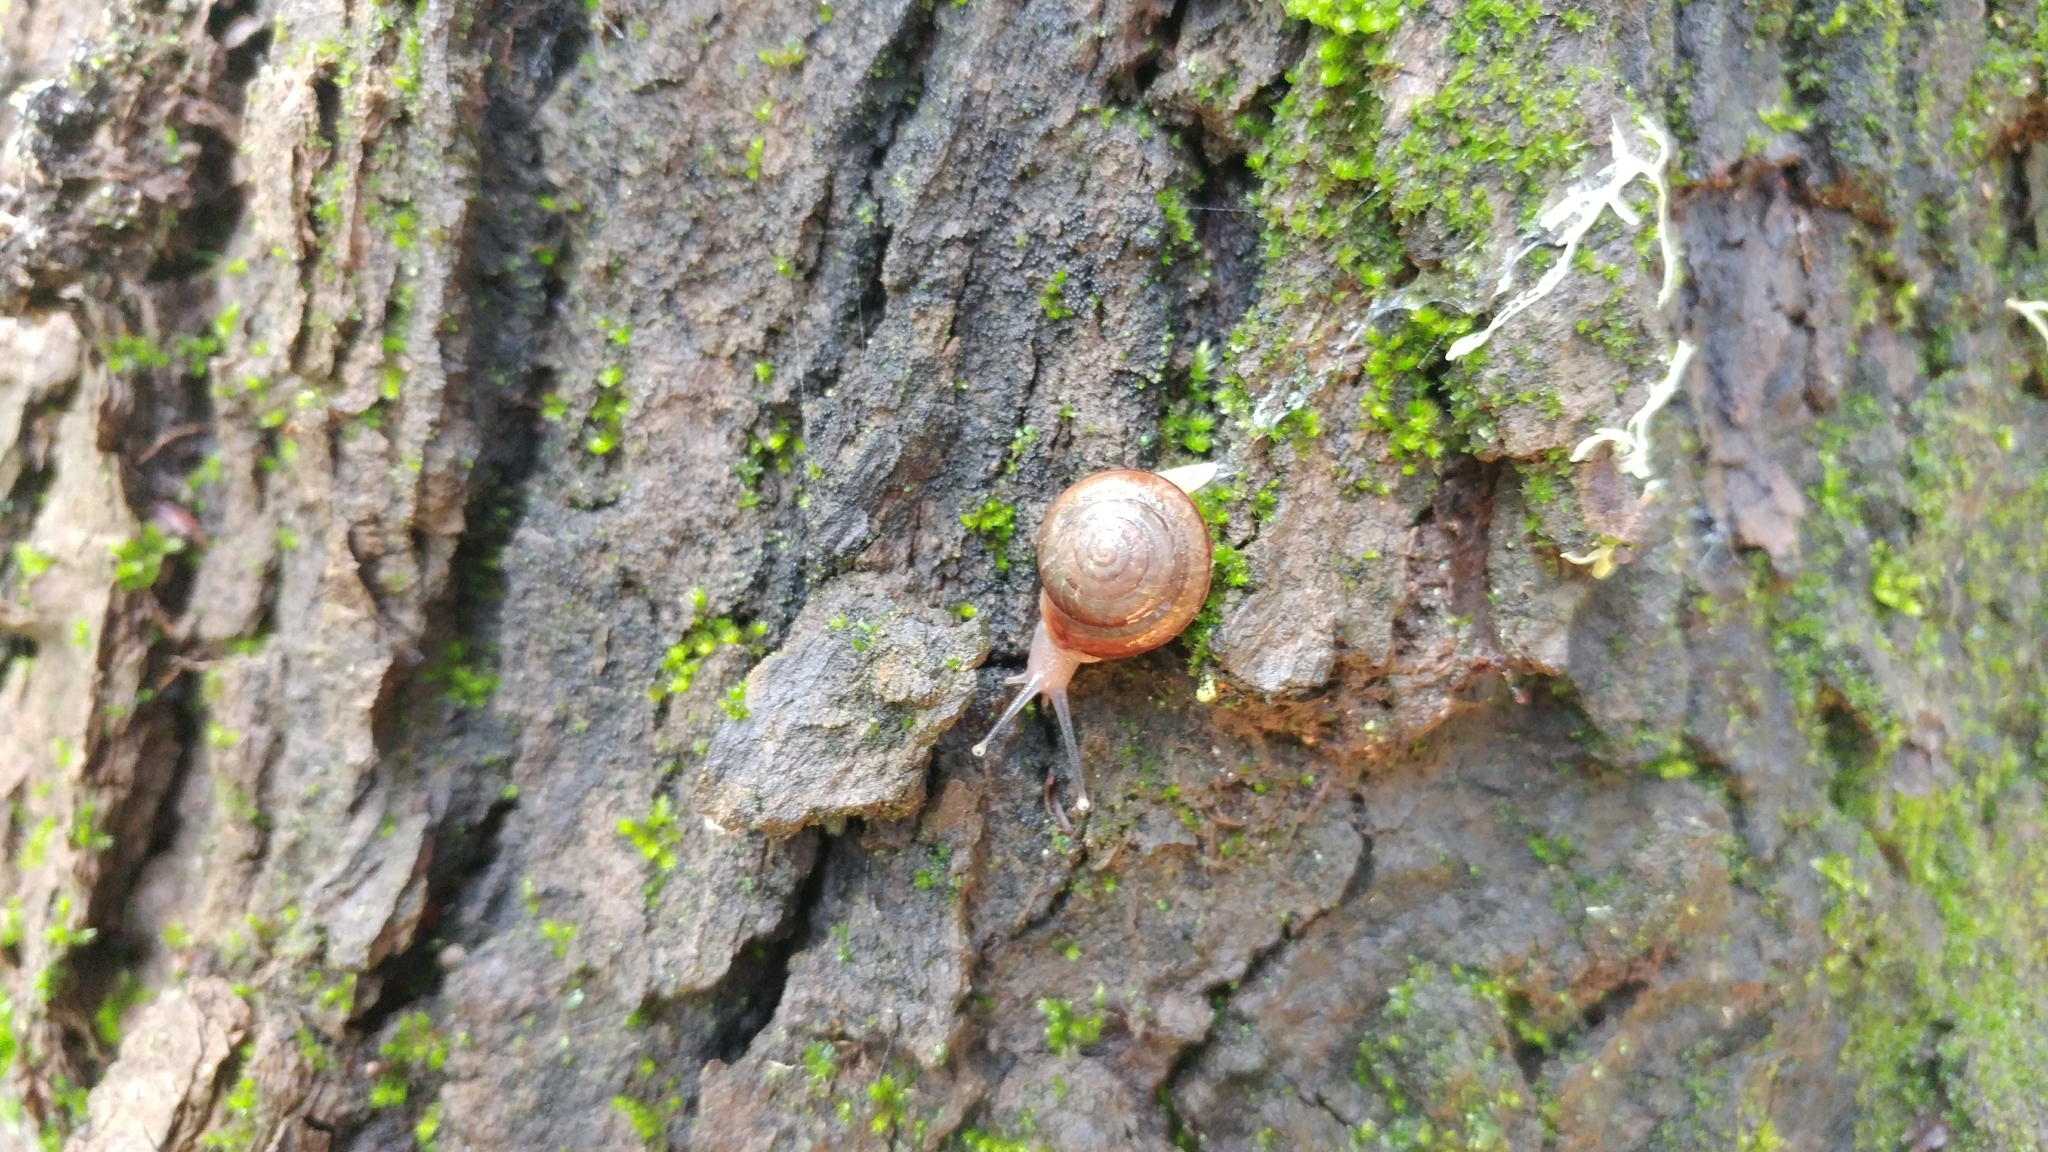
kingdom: Animalia
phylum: Mollusca
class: Gastropoda
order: Stylommatophora
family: Xanthonychidae
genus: Micrarionta
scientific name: Micrarionta gabbii
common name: Gabb's snail
